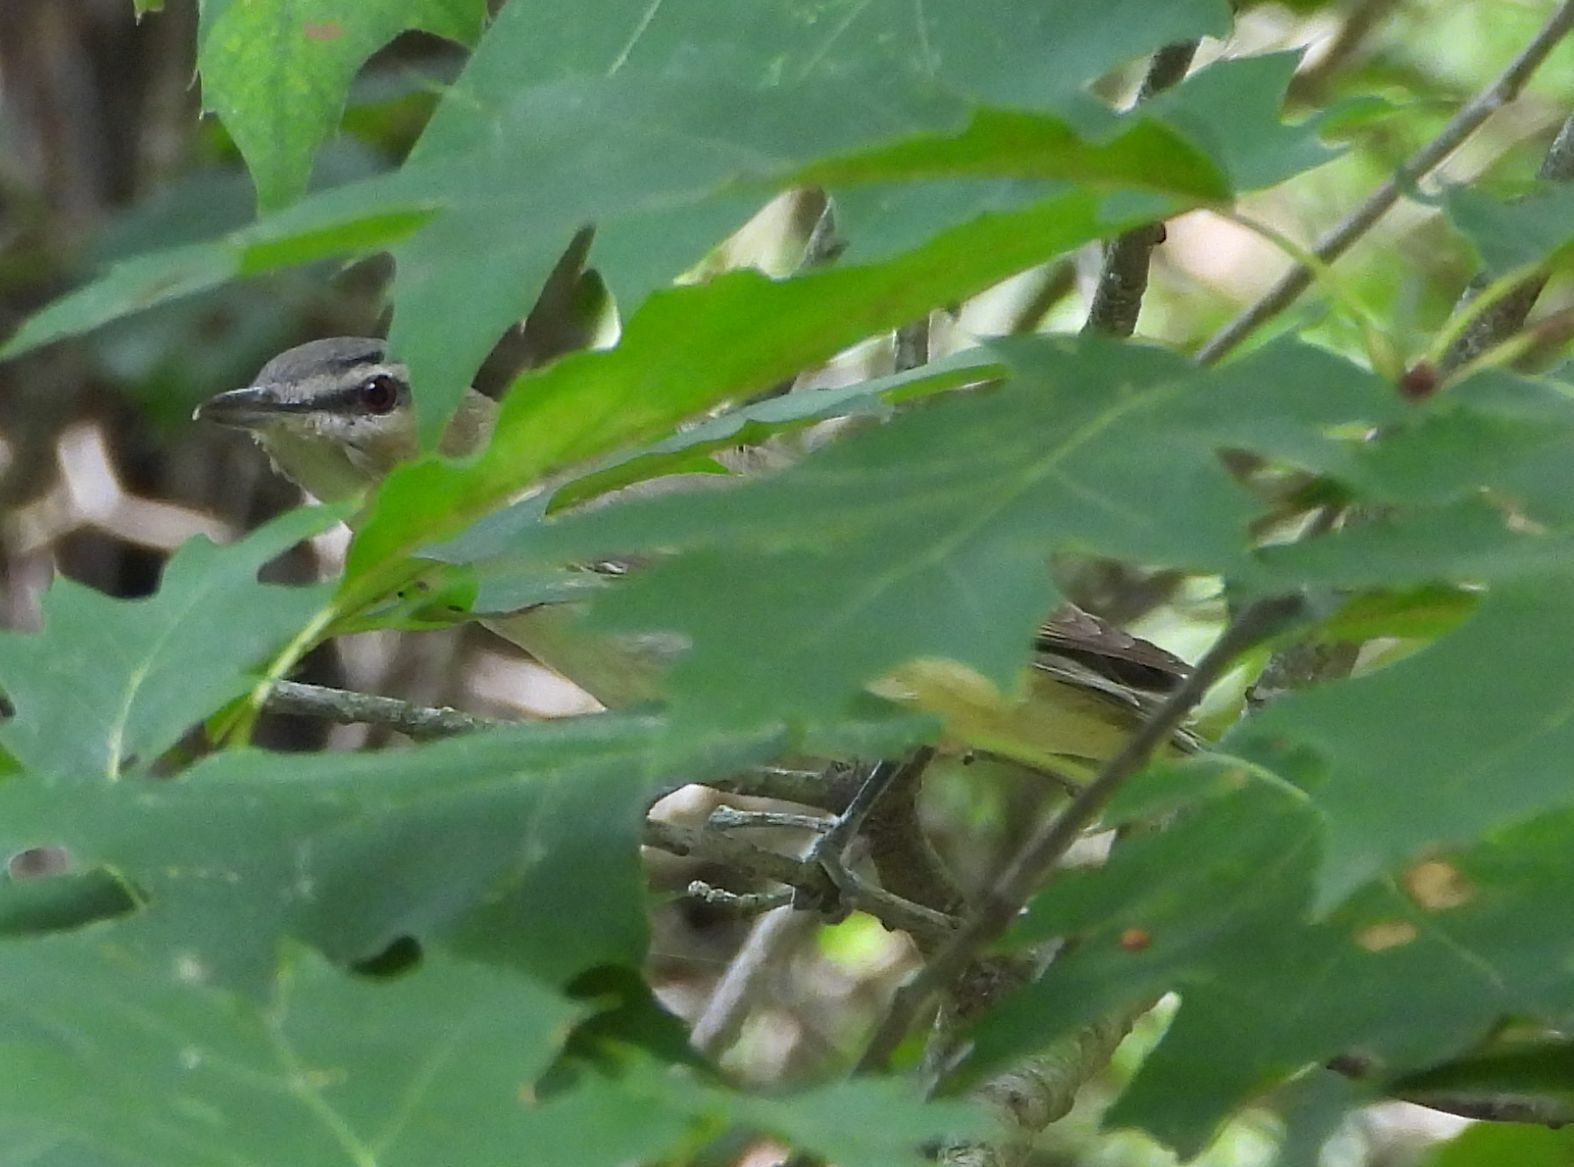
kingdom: Animalia
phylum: Chordata
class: Aves
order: Passeriformes
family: Vireonidae
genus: Vireo
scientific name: Vireo olivaceus
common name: Red-eyed vireo
